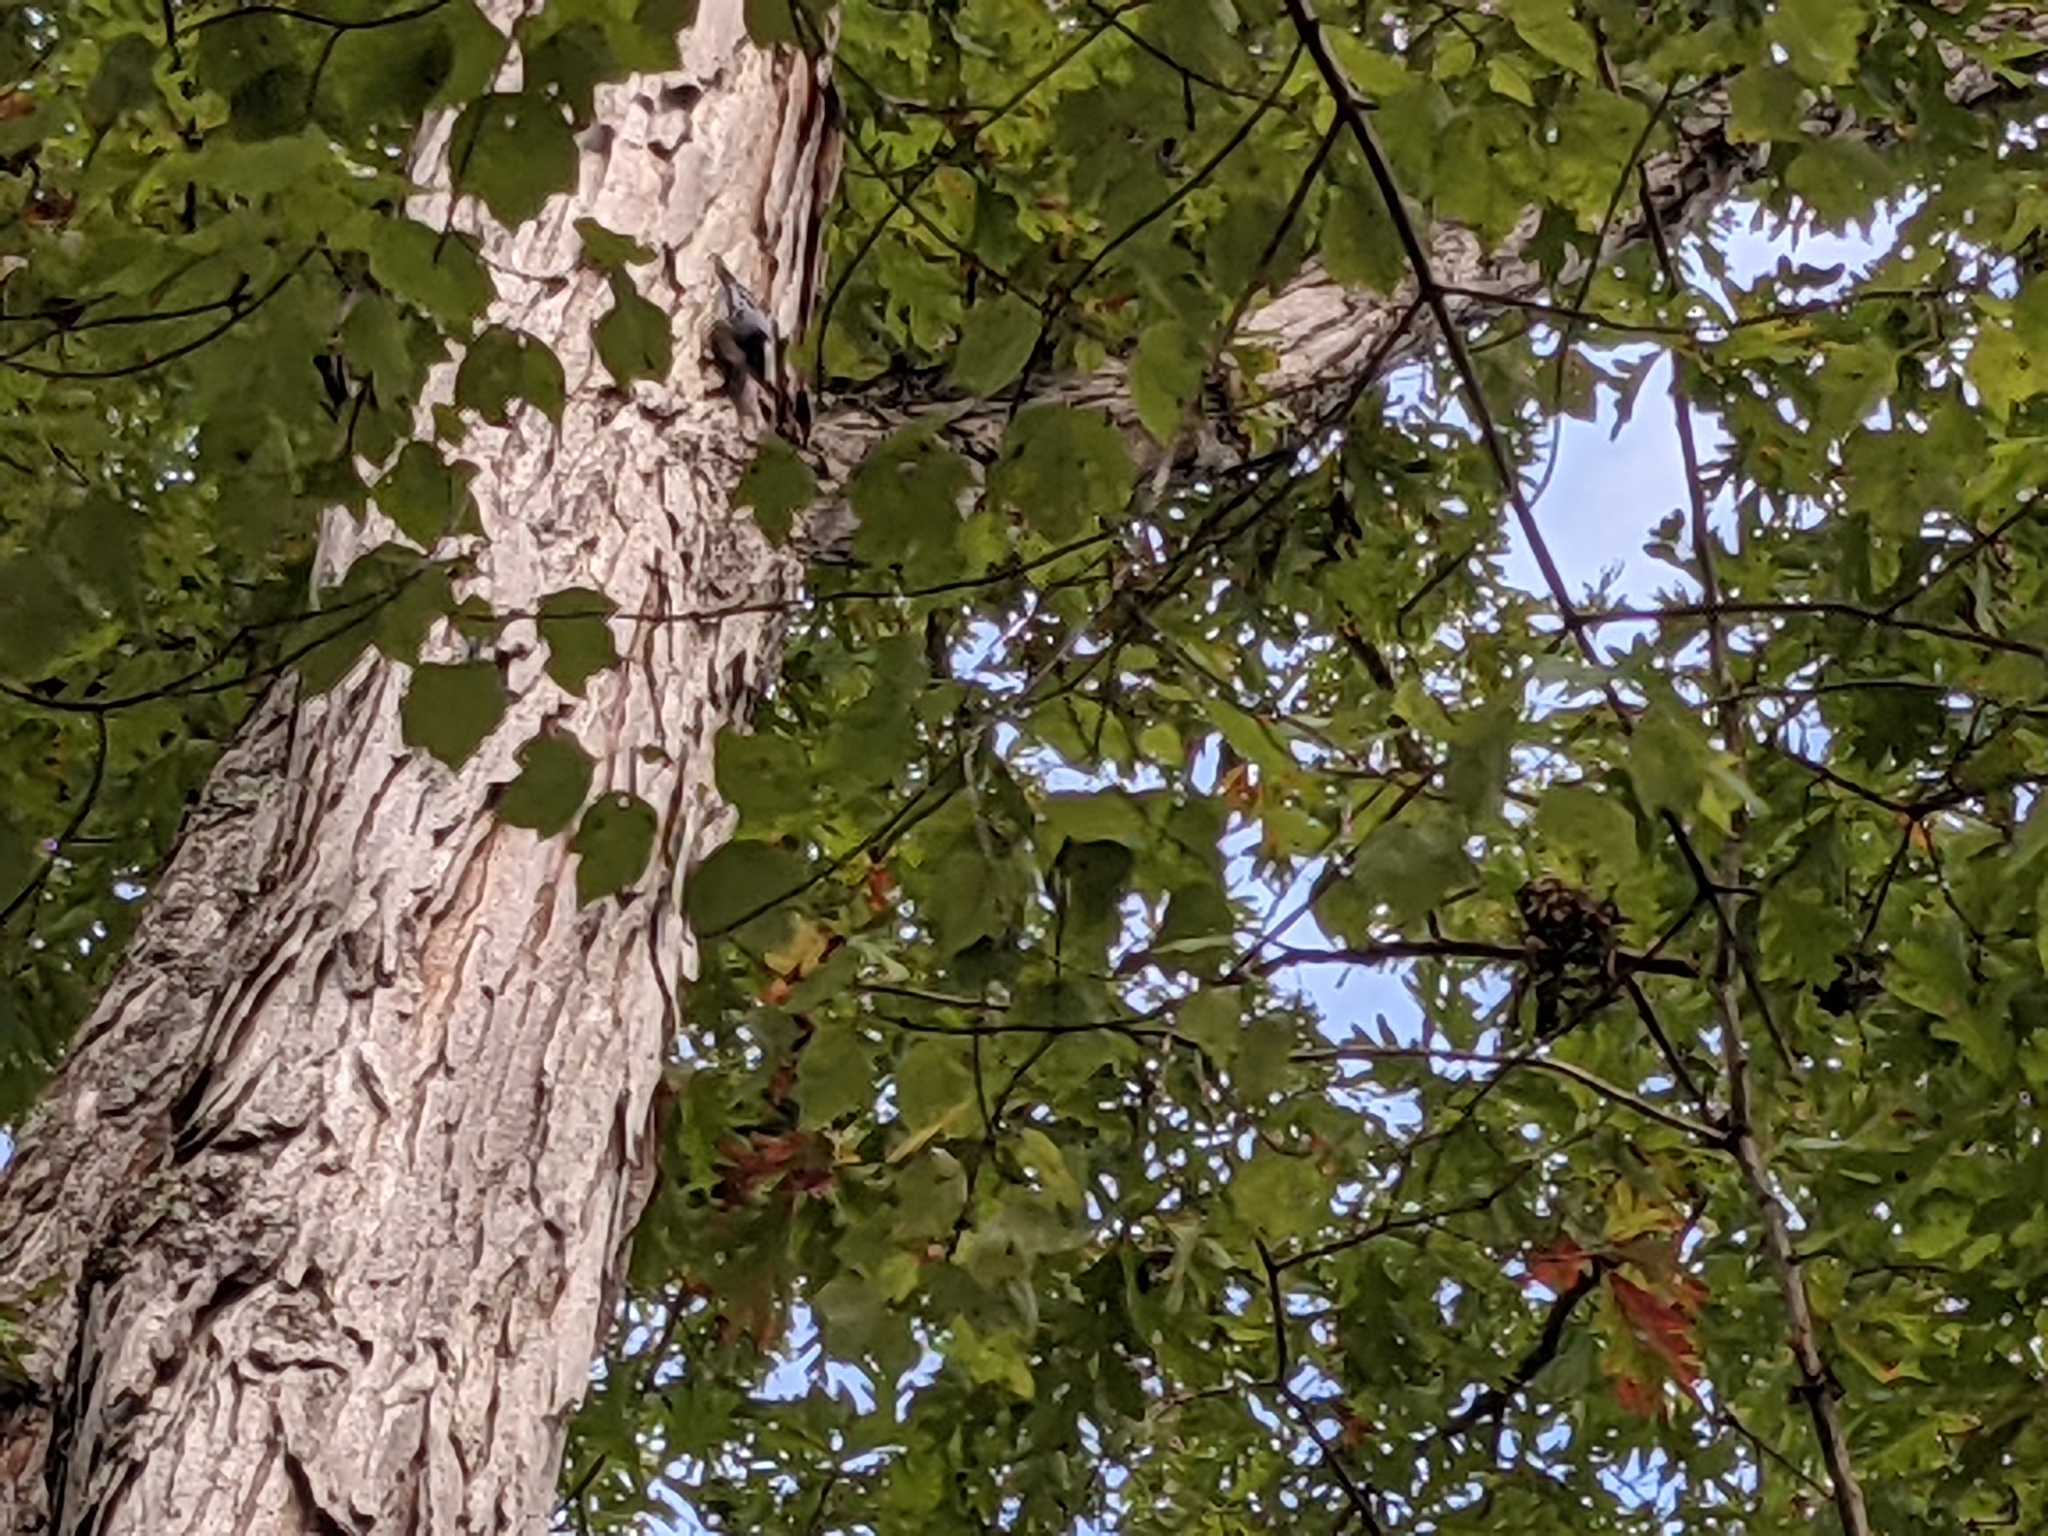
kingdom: Animalia
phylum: Chordata
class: Aves
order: Passeriformes
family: Sittidae
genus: Sitta
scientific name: Sitta carolinensis
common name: White-breasted nuthatch
